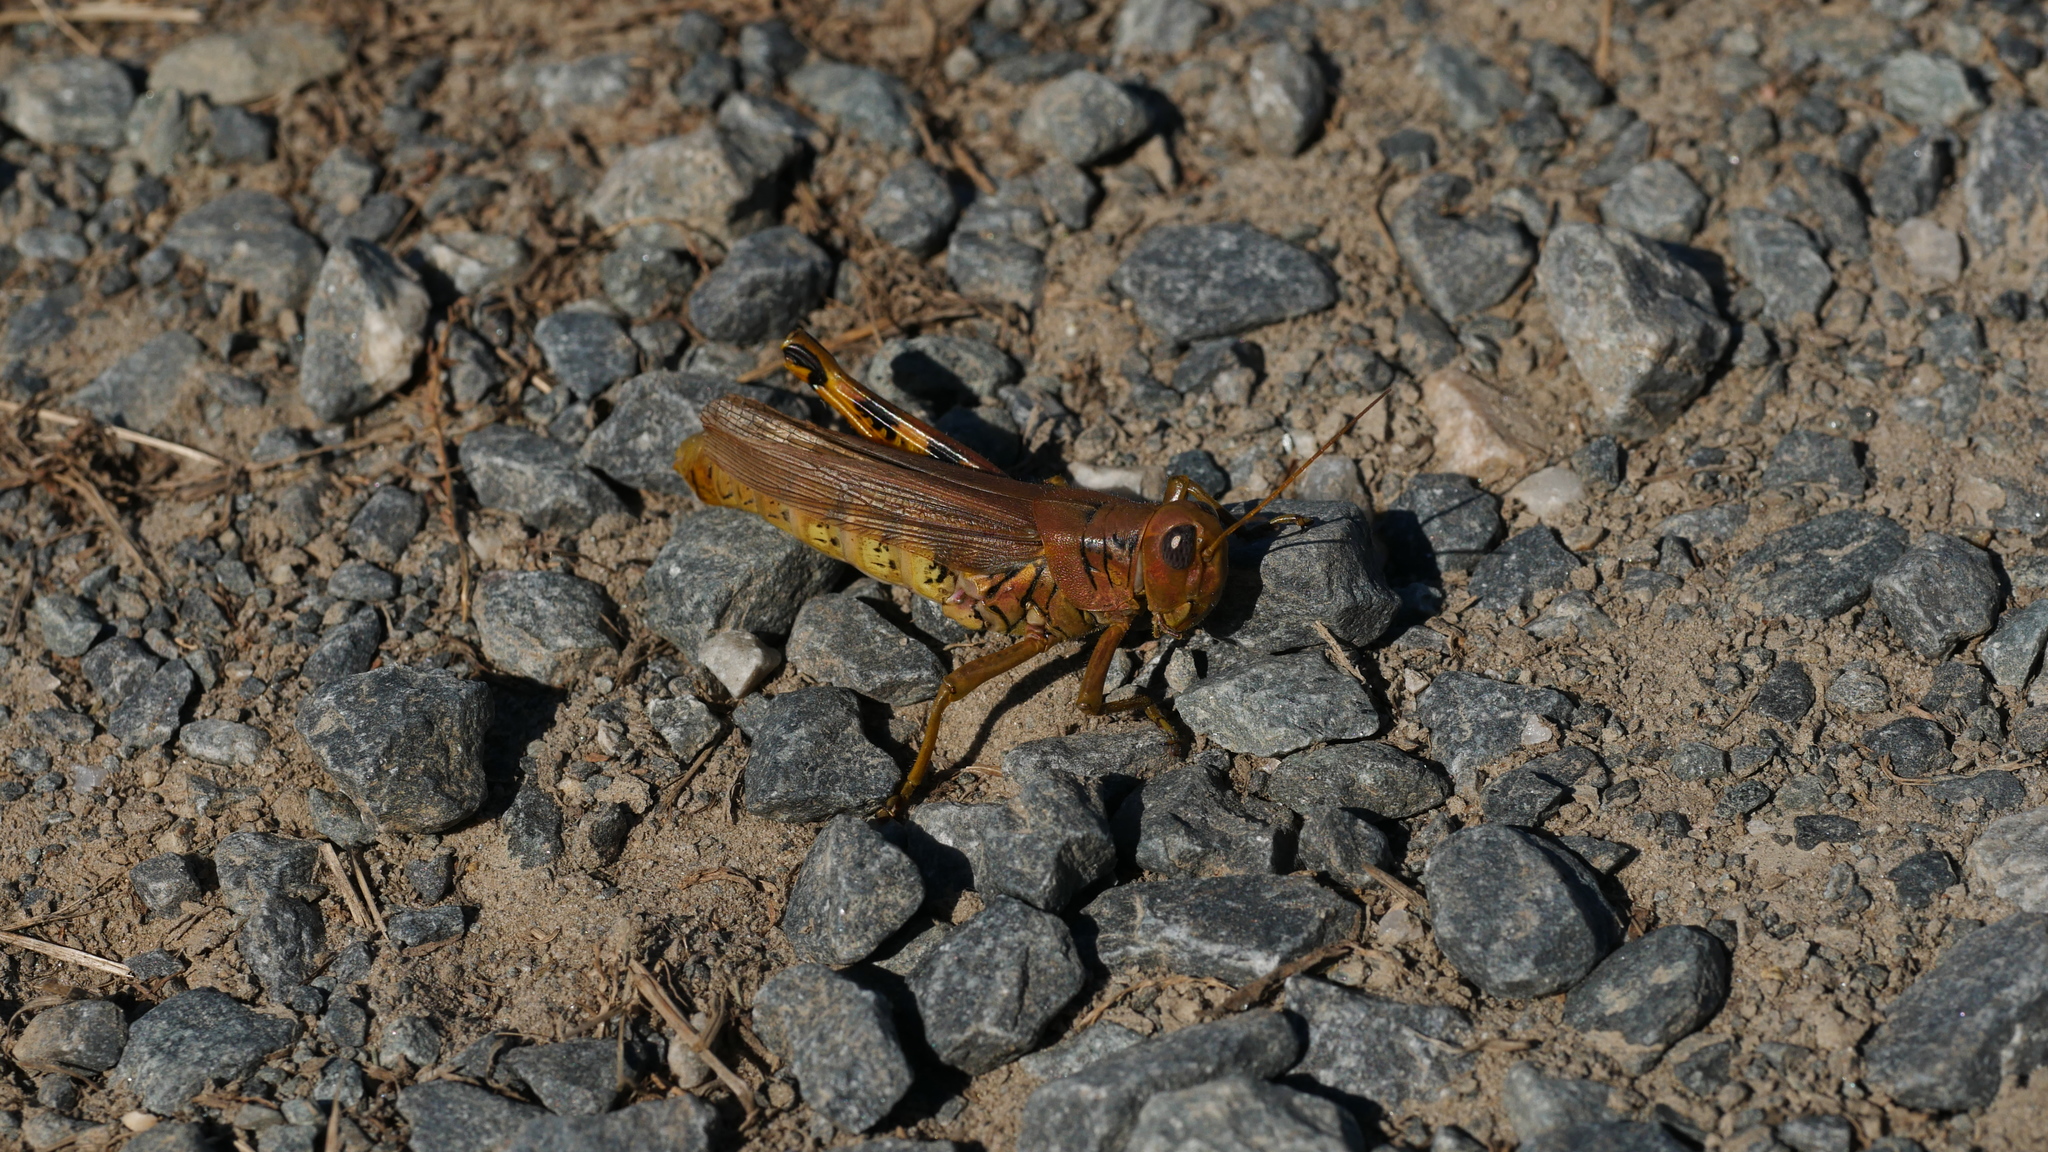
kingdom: Animalia
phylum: Arthropoda
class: Insecta
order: Orthoptera
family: Acrididae
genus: Melanoplus
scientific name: Melanoplus differentialis
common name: Differential grasshopper
